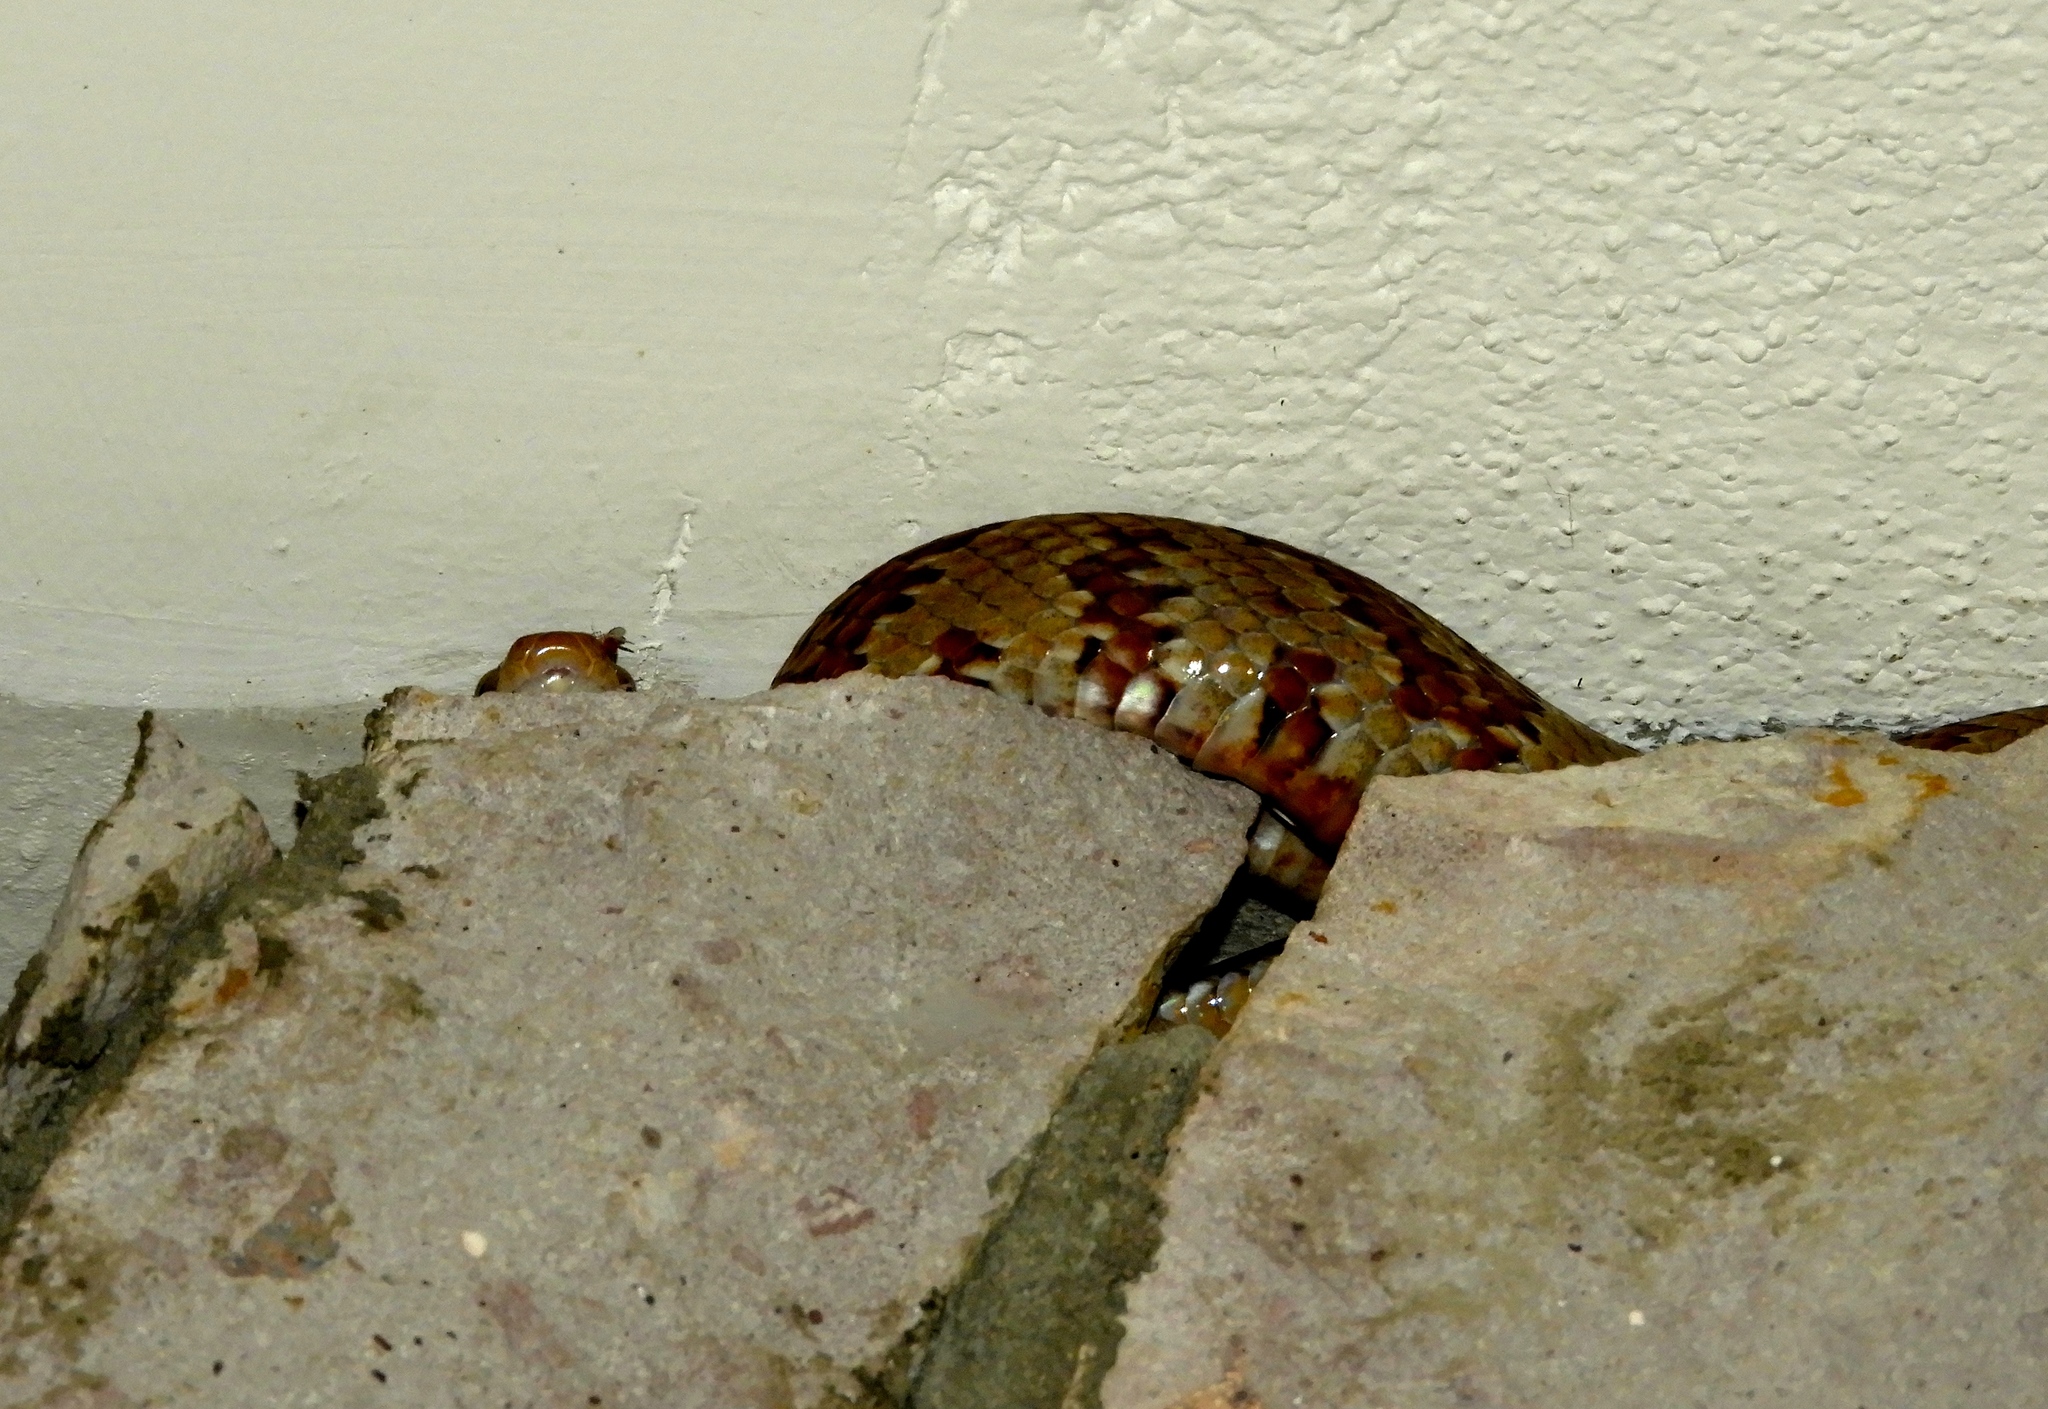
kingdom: Animalia
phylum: Chordata
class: Squamata
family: Colubridae
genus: Trimorphodon
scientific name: Trimorphodon paucimaculatus
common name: Sinaloan lyresnake
